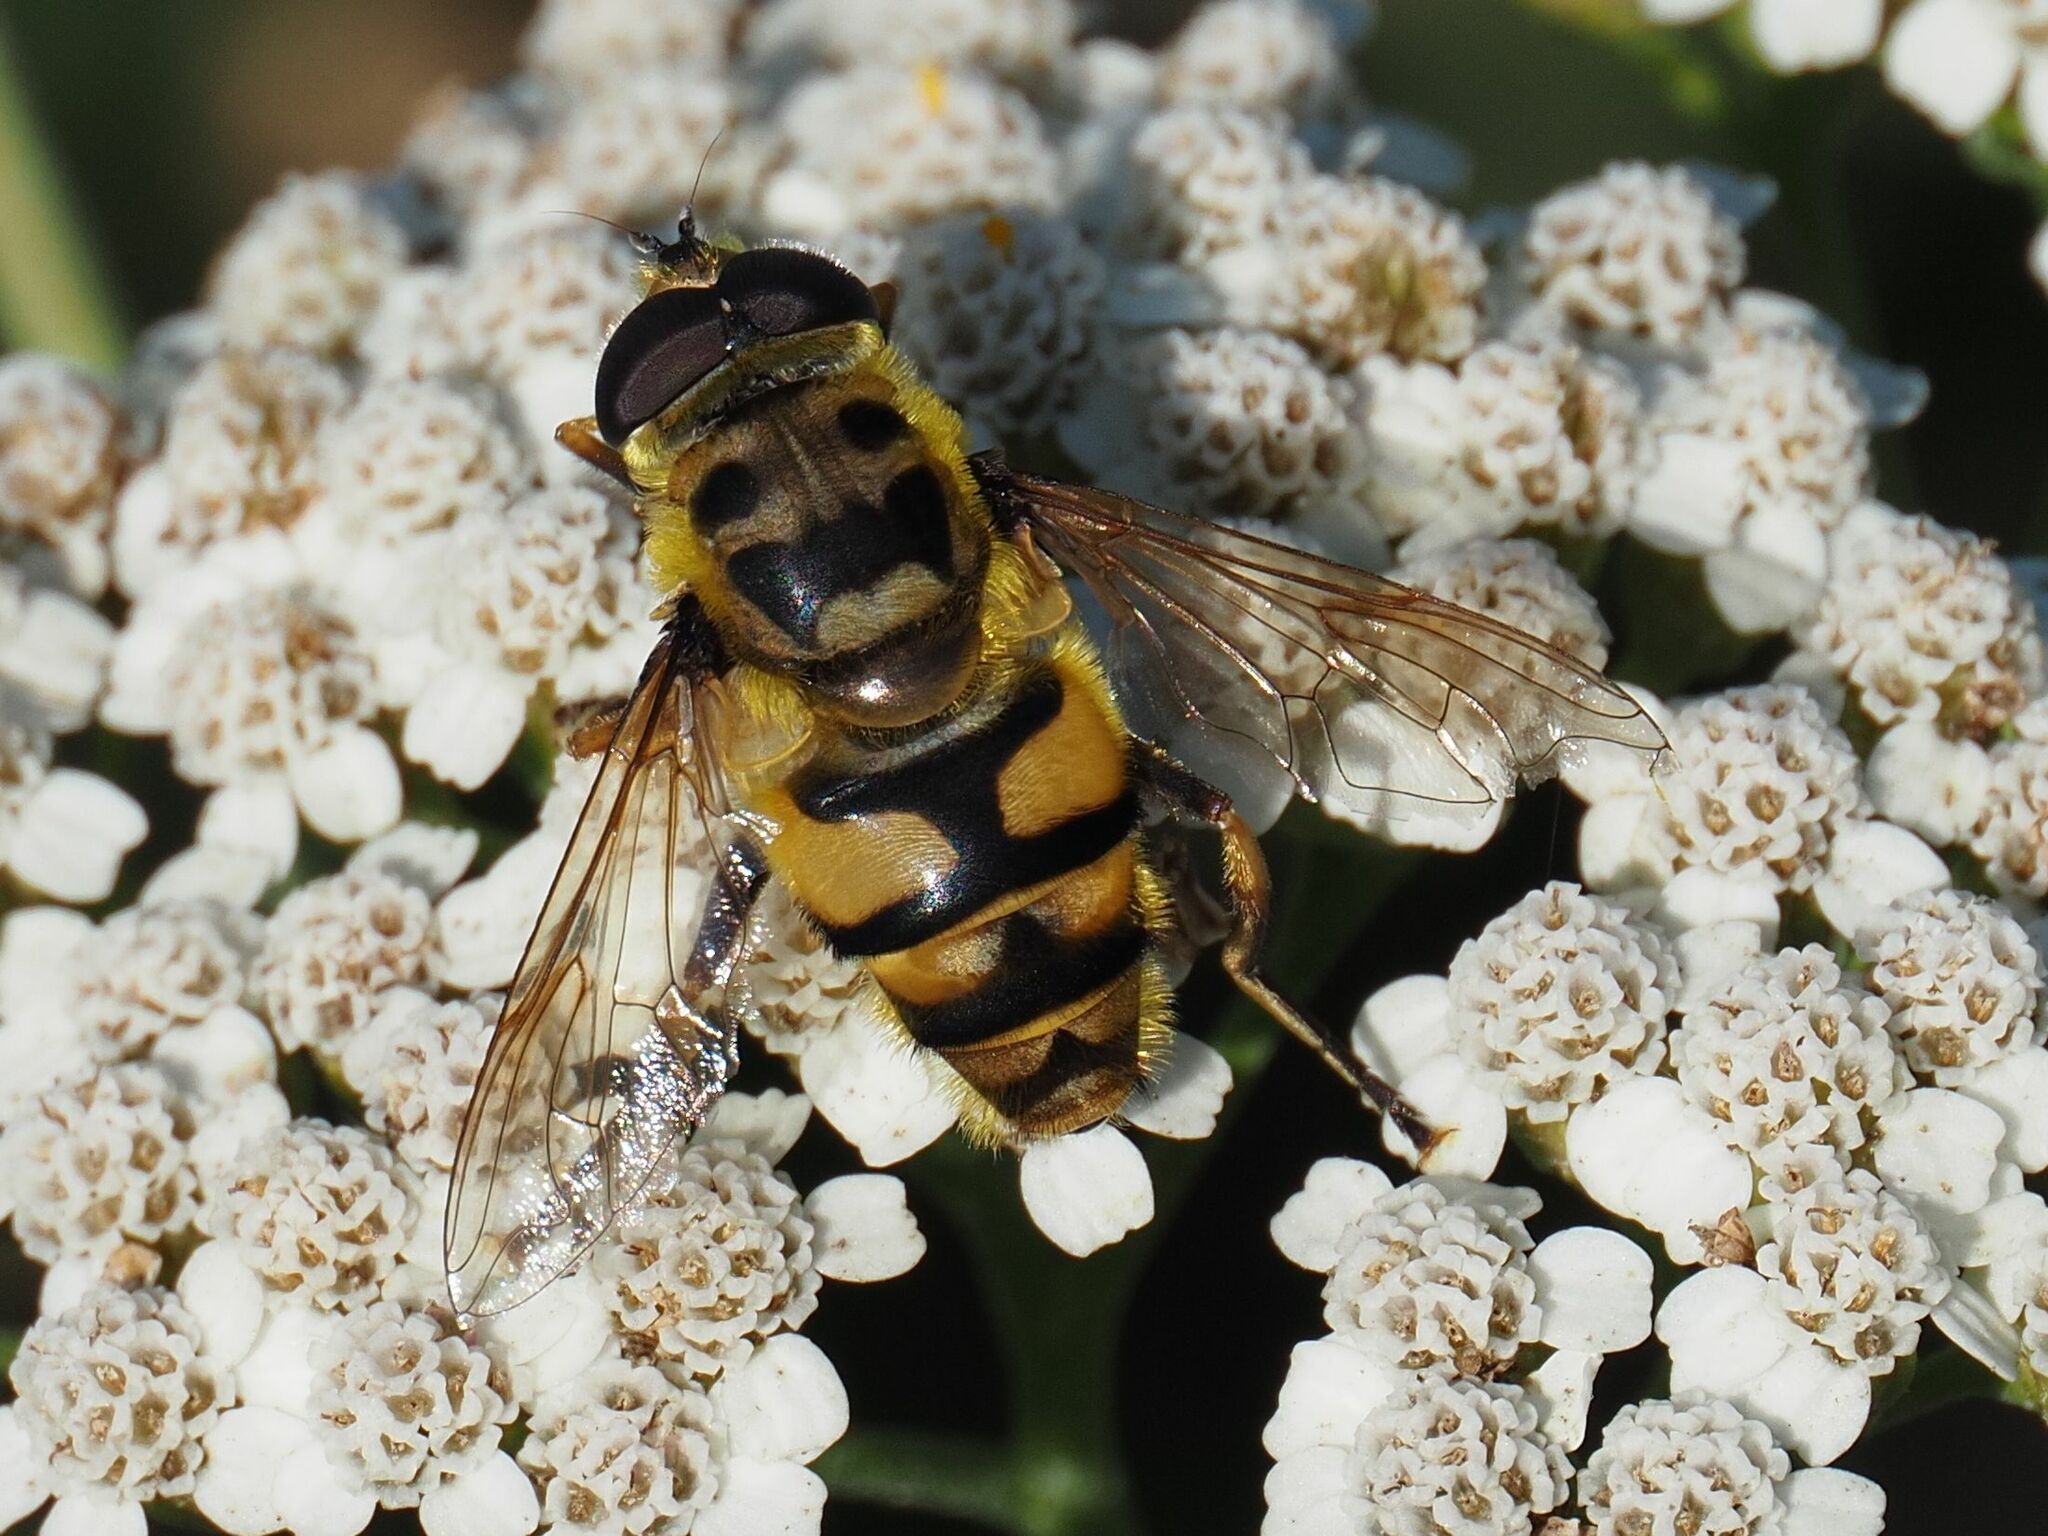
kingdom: Animalia
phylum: Arthropoda
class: Insecta
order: Diptera
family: Syrphidae
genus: Myathropa
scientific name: Myathropa florea
